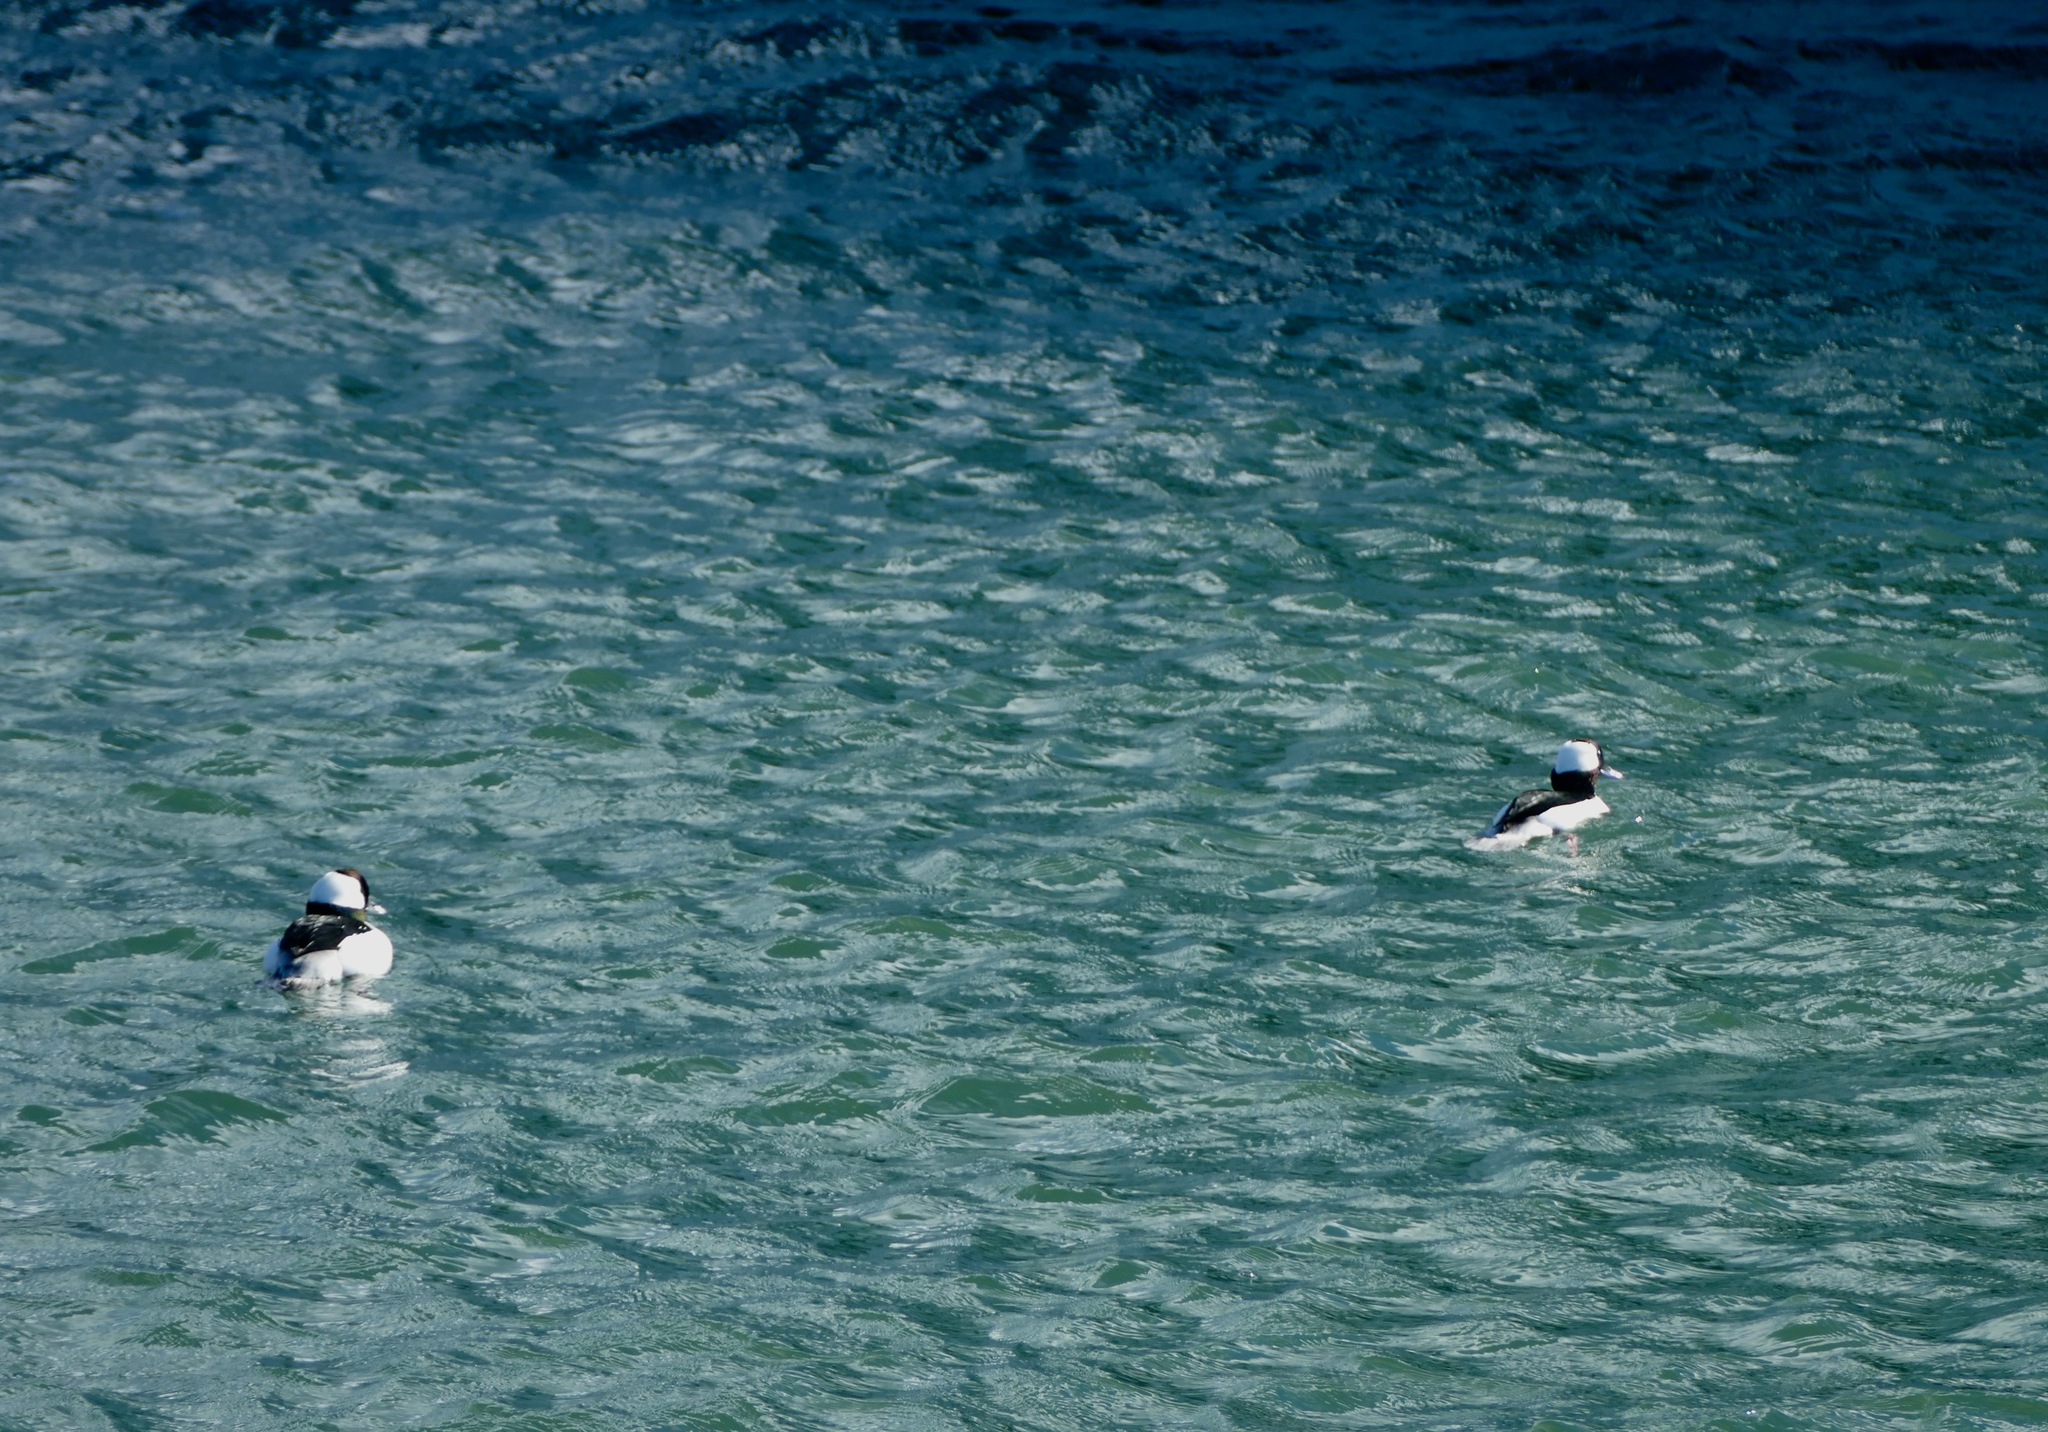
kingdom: Animalia
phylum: Chordata
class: Aves
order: Anseriformes
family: Anatidae
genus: Bucephala
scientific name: Bucephala albeola
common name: Bufflehead
